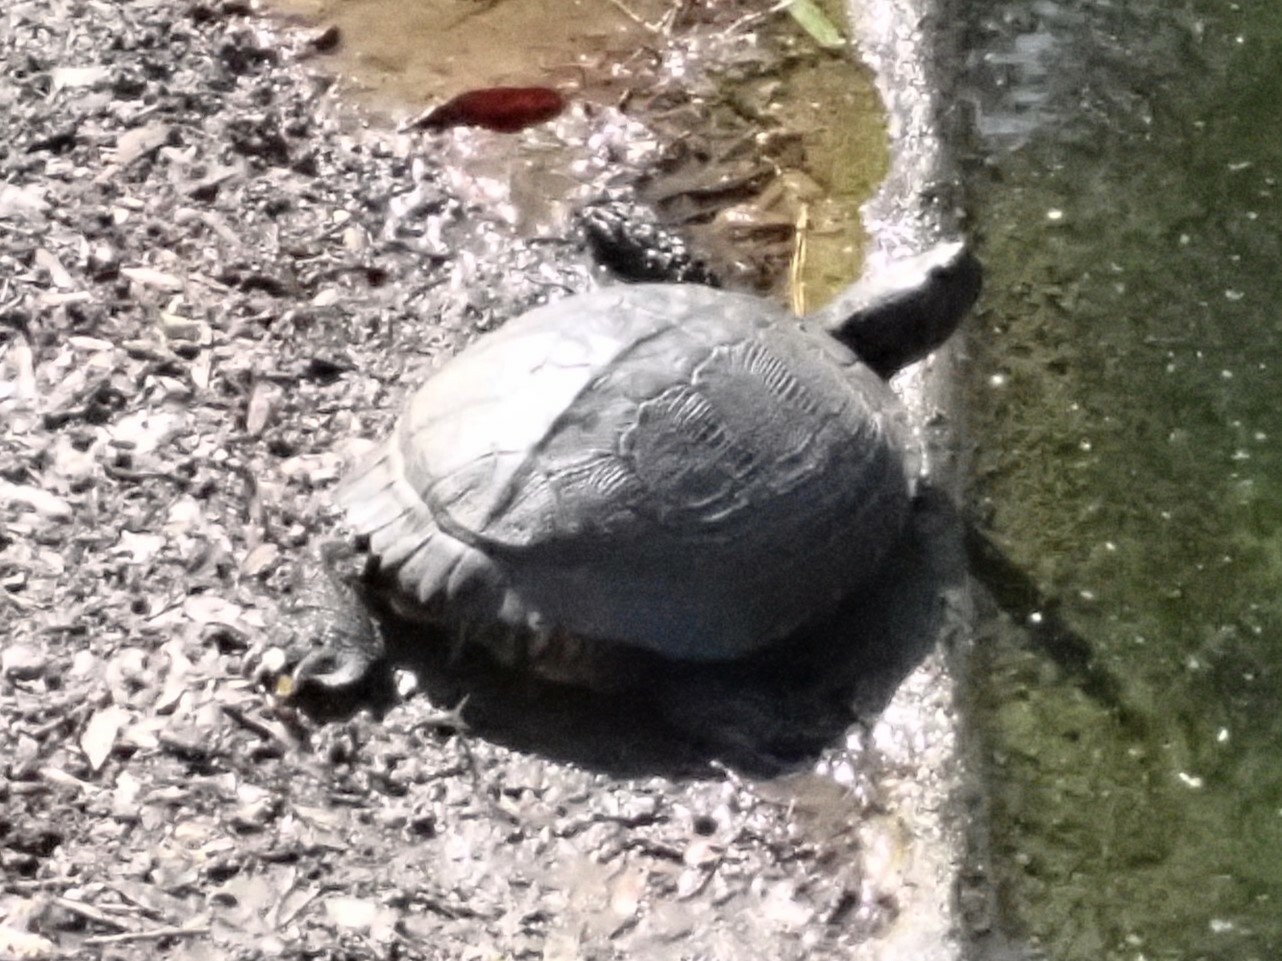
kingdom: Animalia
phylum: Chordata
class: Testudines
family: Emydidae
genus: Trachemys
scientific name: Trachemys scripta
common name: Slider
